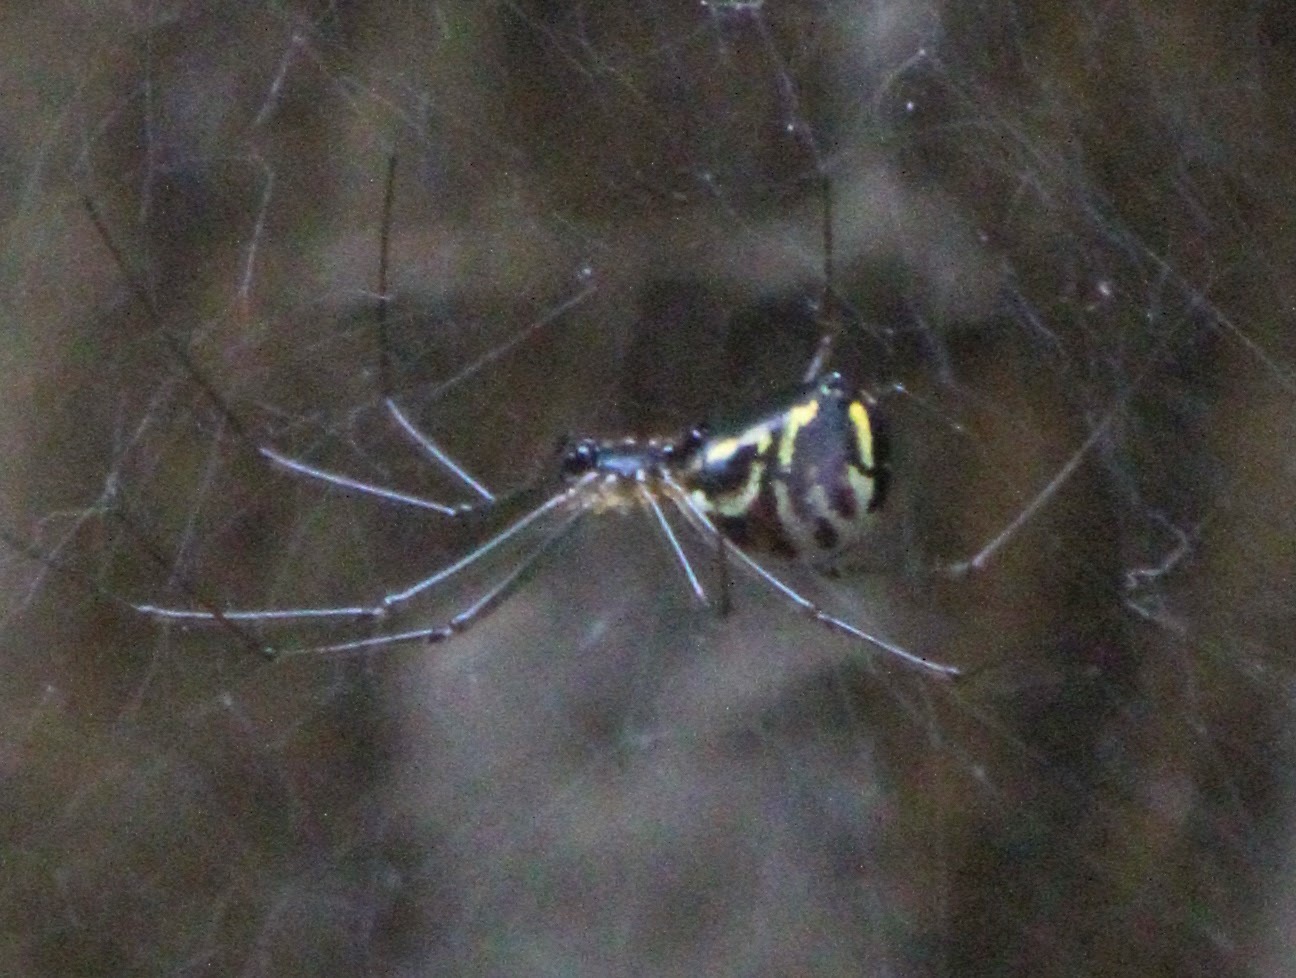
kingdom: Animalia
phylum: Arthropoda
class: Arachnida
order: Araneae
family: Linyphiidae
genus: Neriene
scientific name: Neriene radiata
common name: Filmy dome spider
